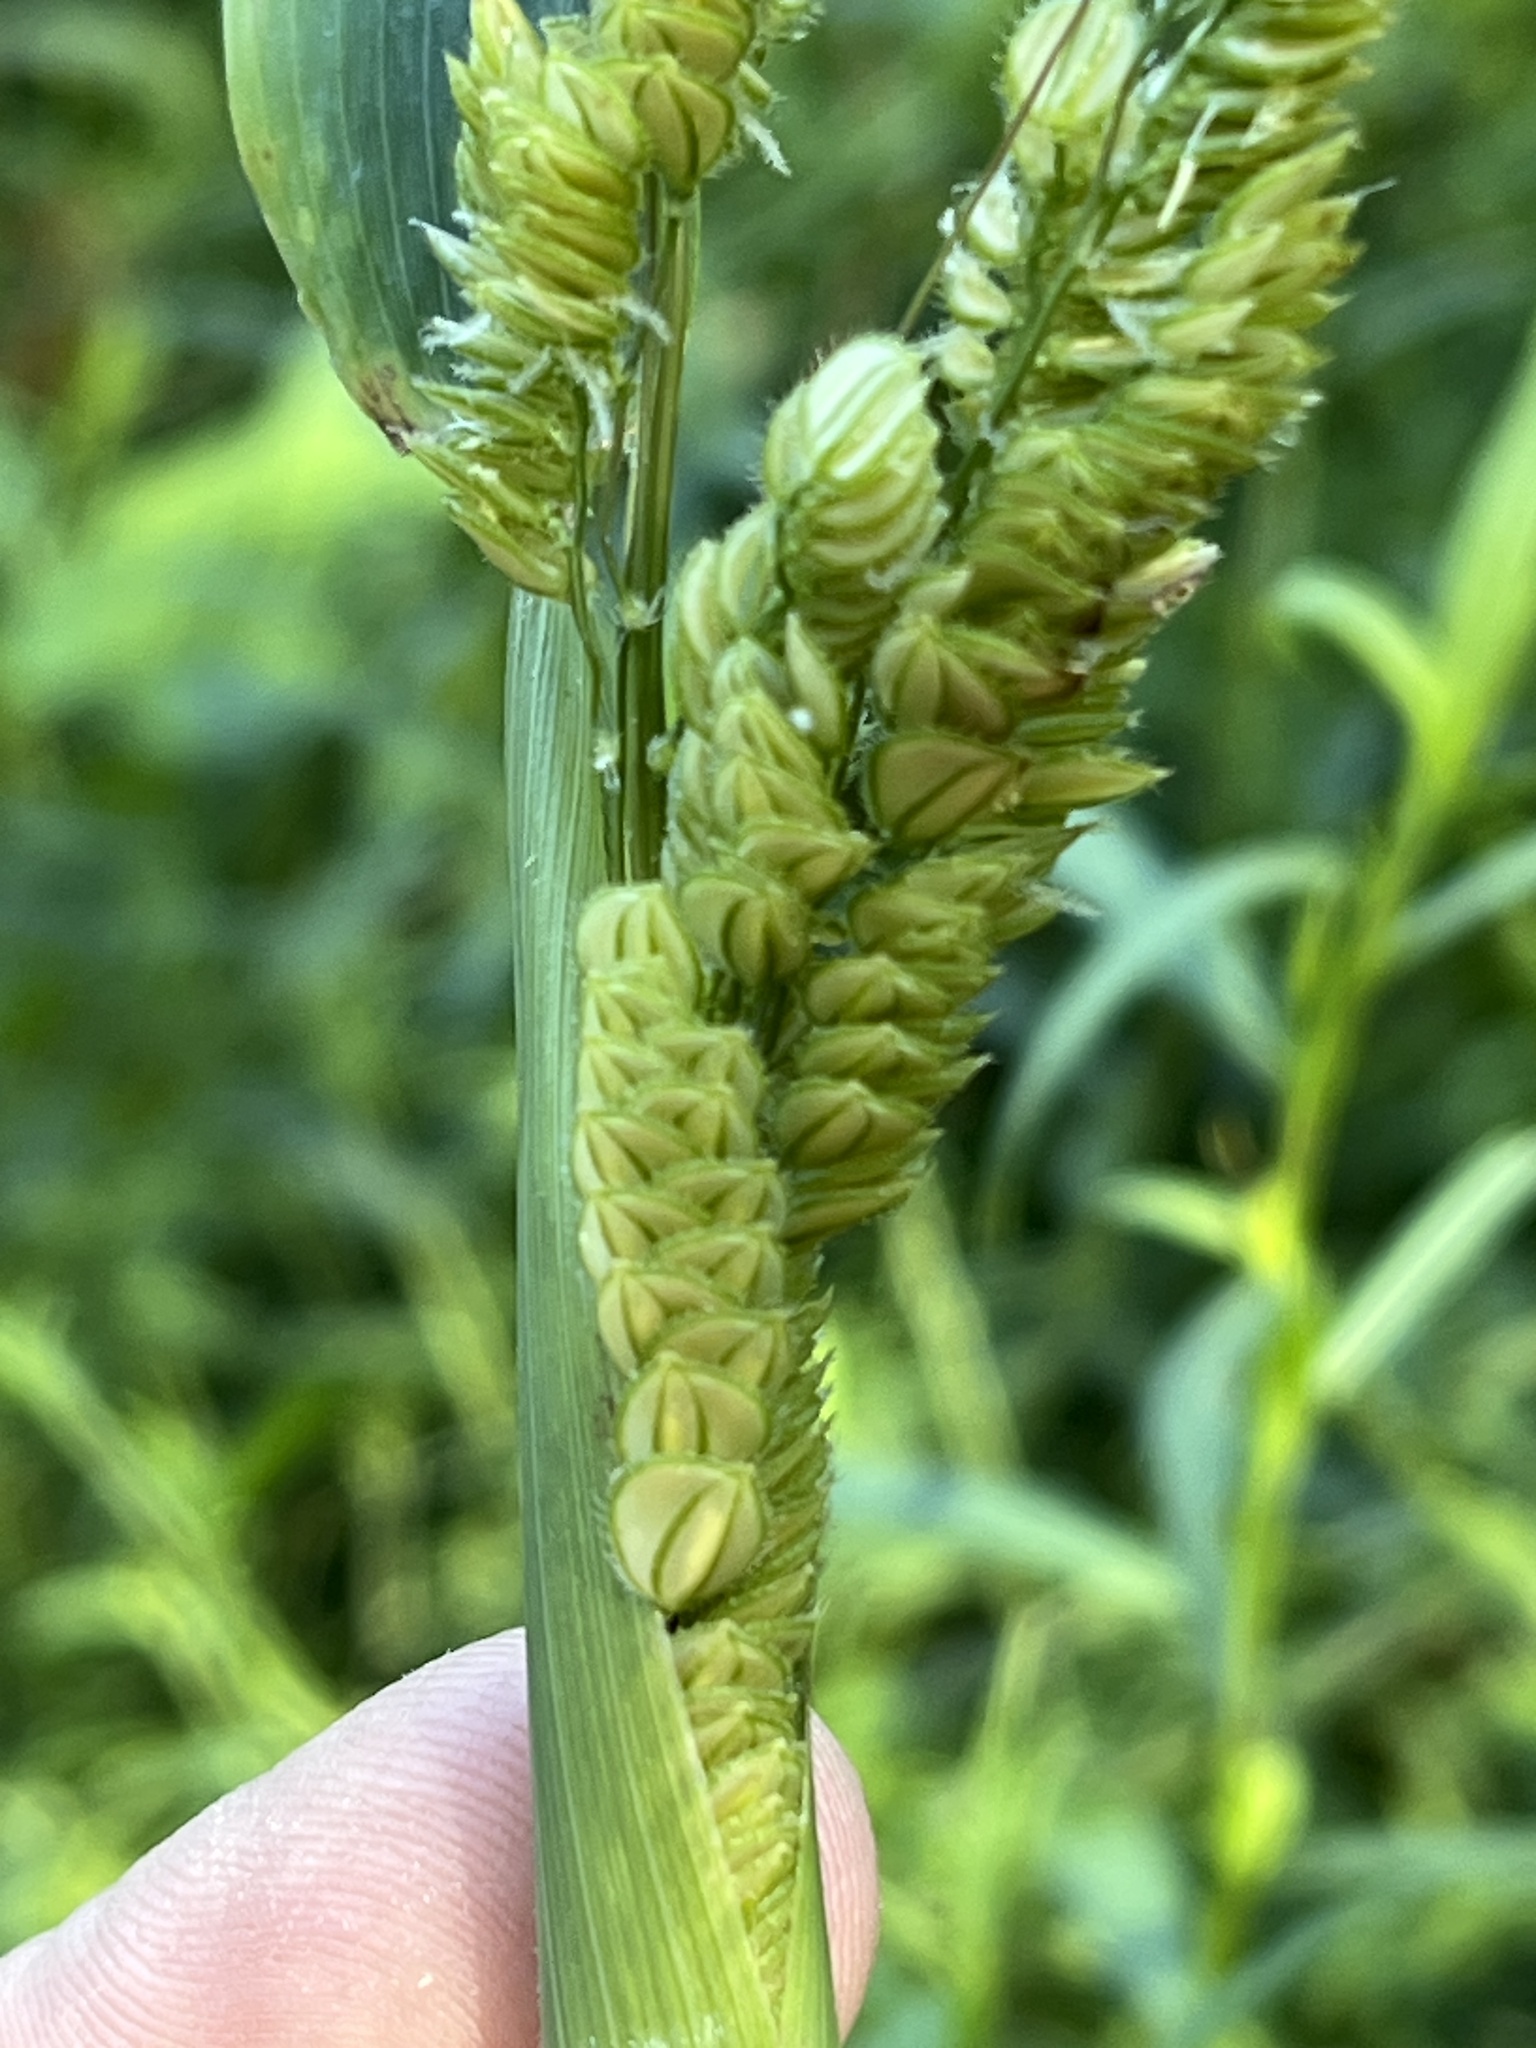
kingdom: Plantae
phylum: Tracheophyta
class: Liliopsida
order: Poales
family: Poaceae
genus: Leersia
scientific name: Leersia lenticularis
